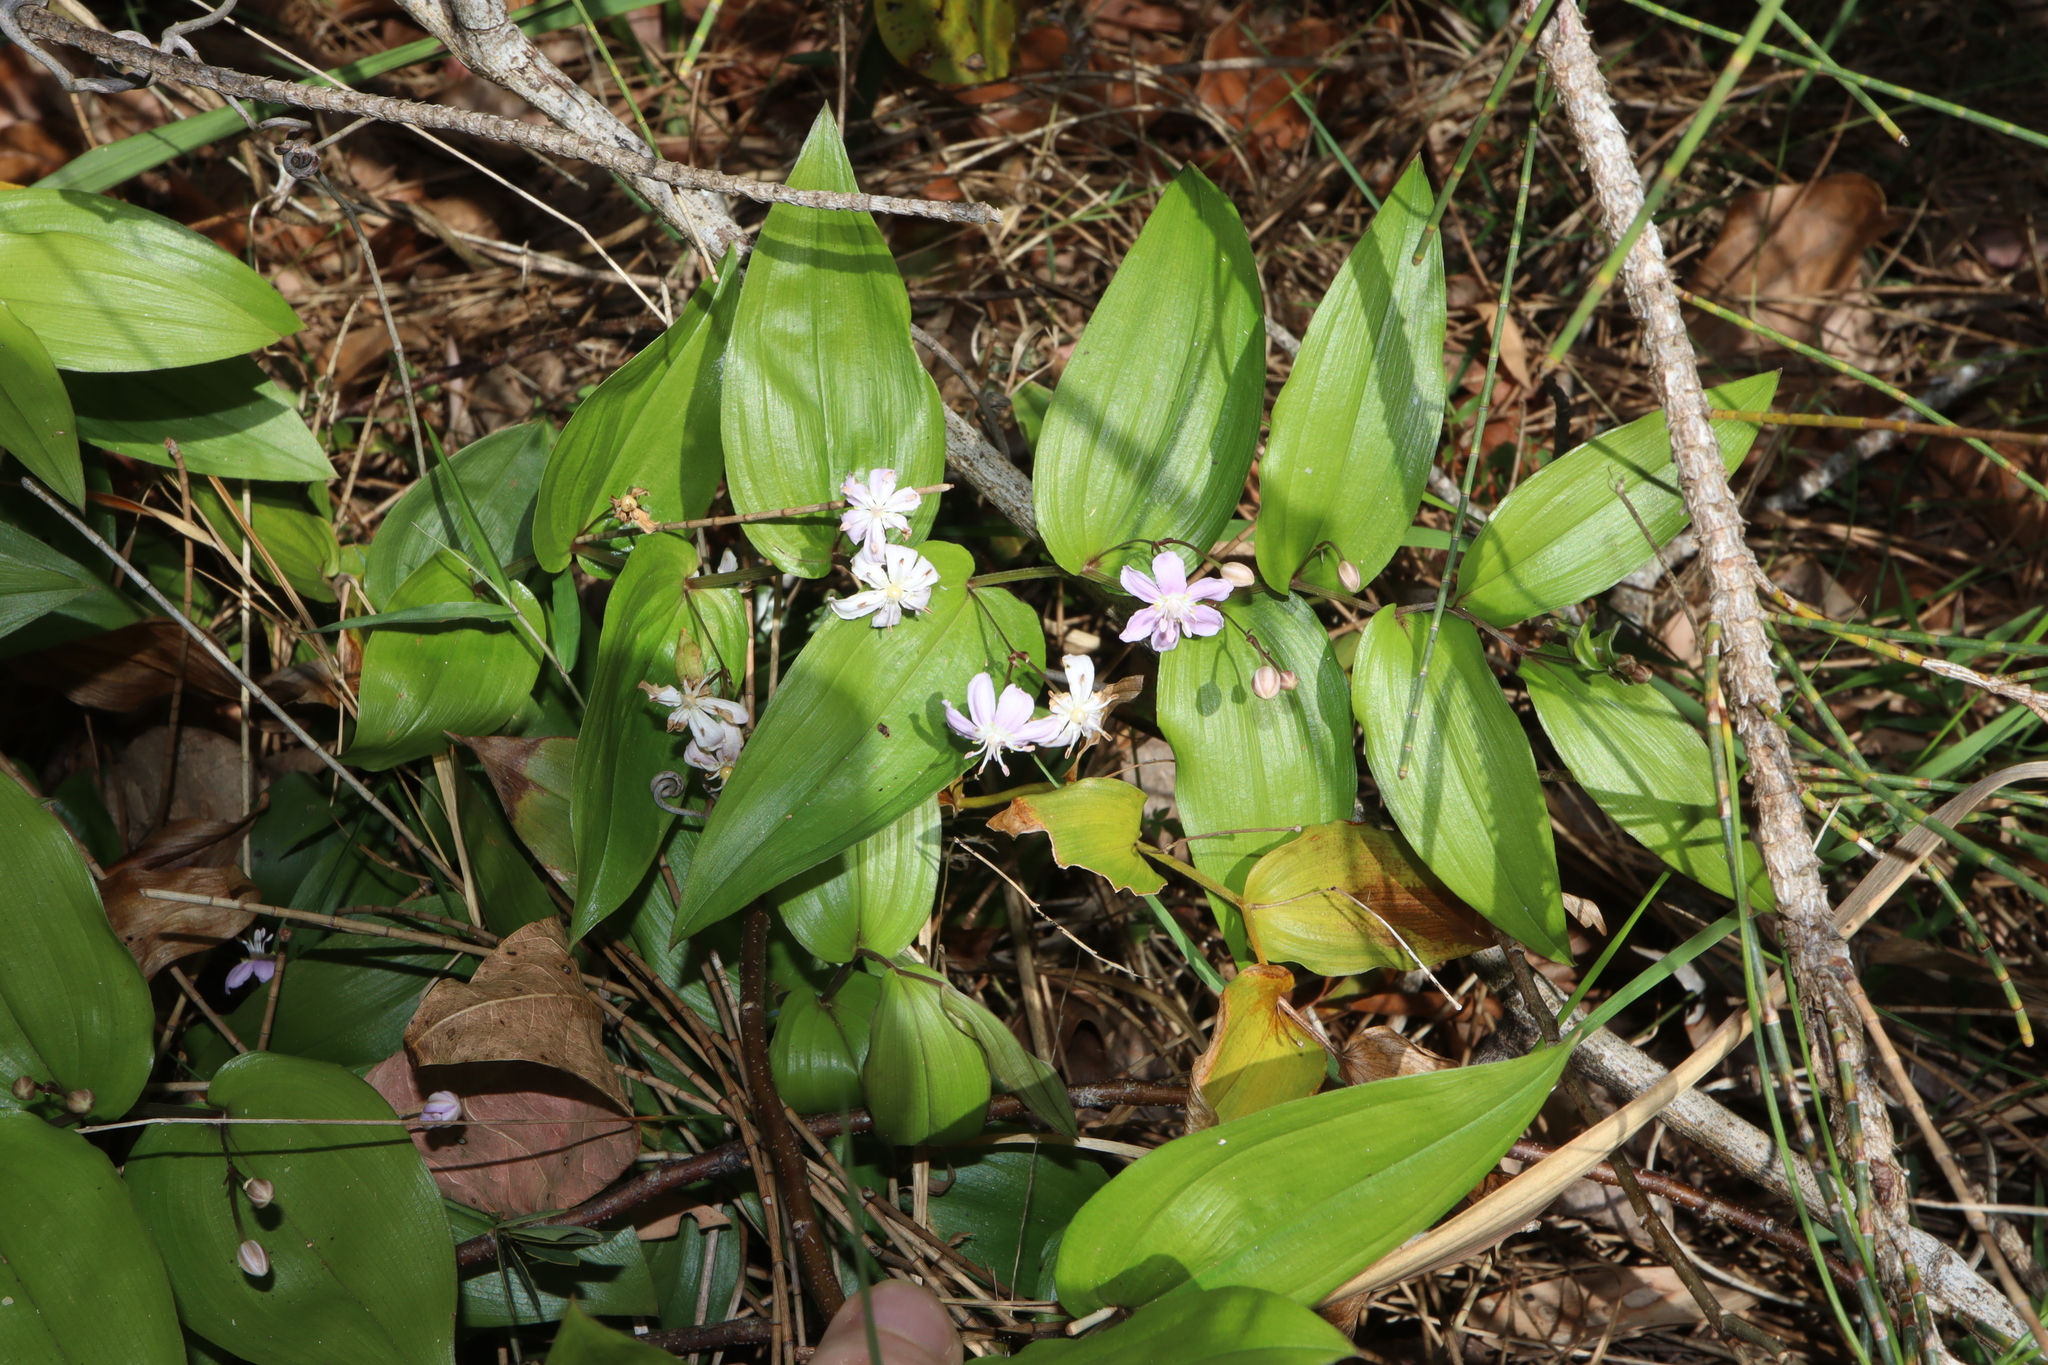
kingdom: Plantae
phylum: Tracheophyta
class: Liliopsida
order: Liliales
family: Colchicaceae
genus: Tripladenia
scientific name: Tripladenia cunninghamii
